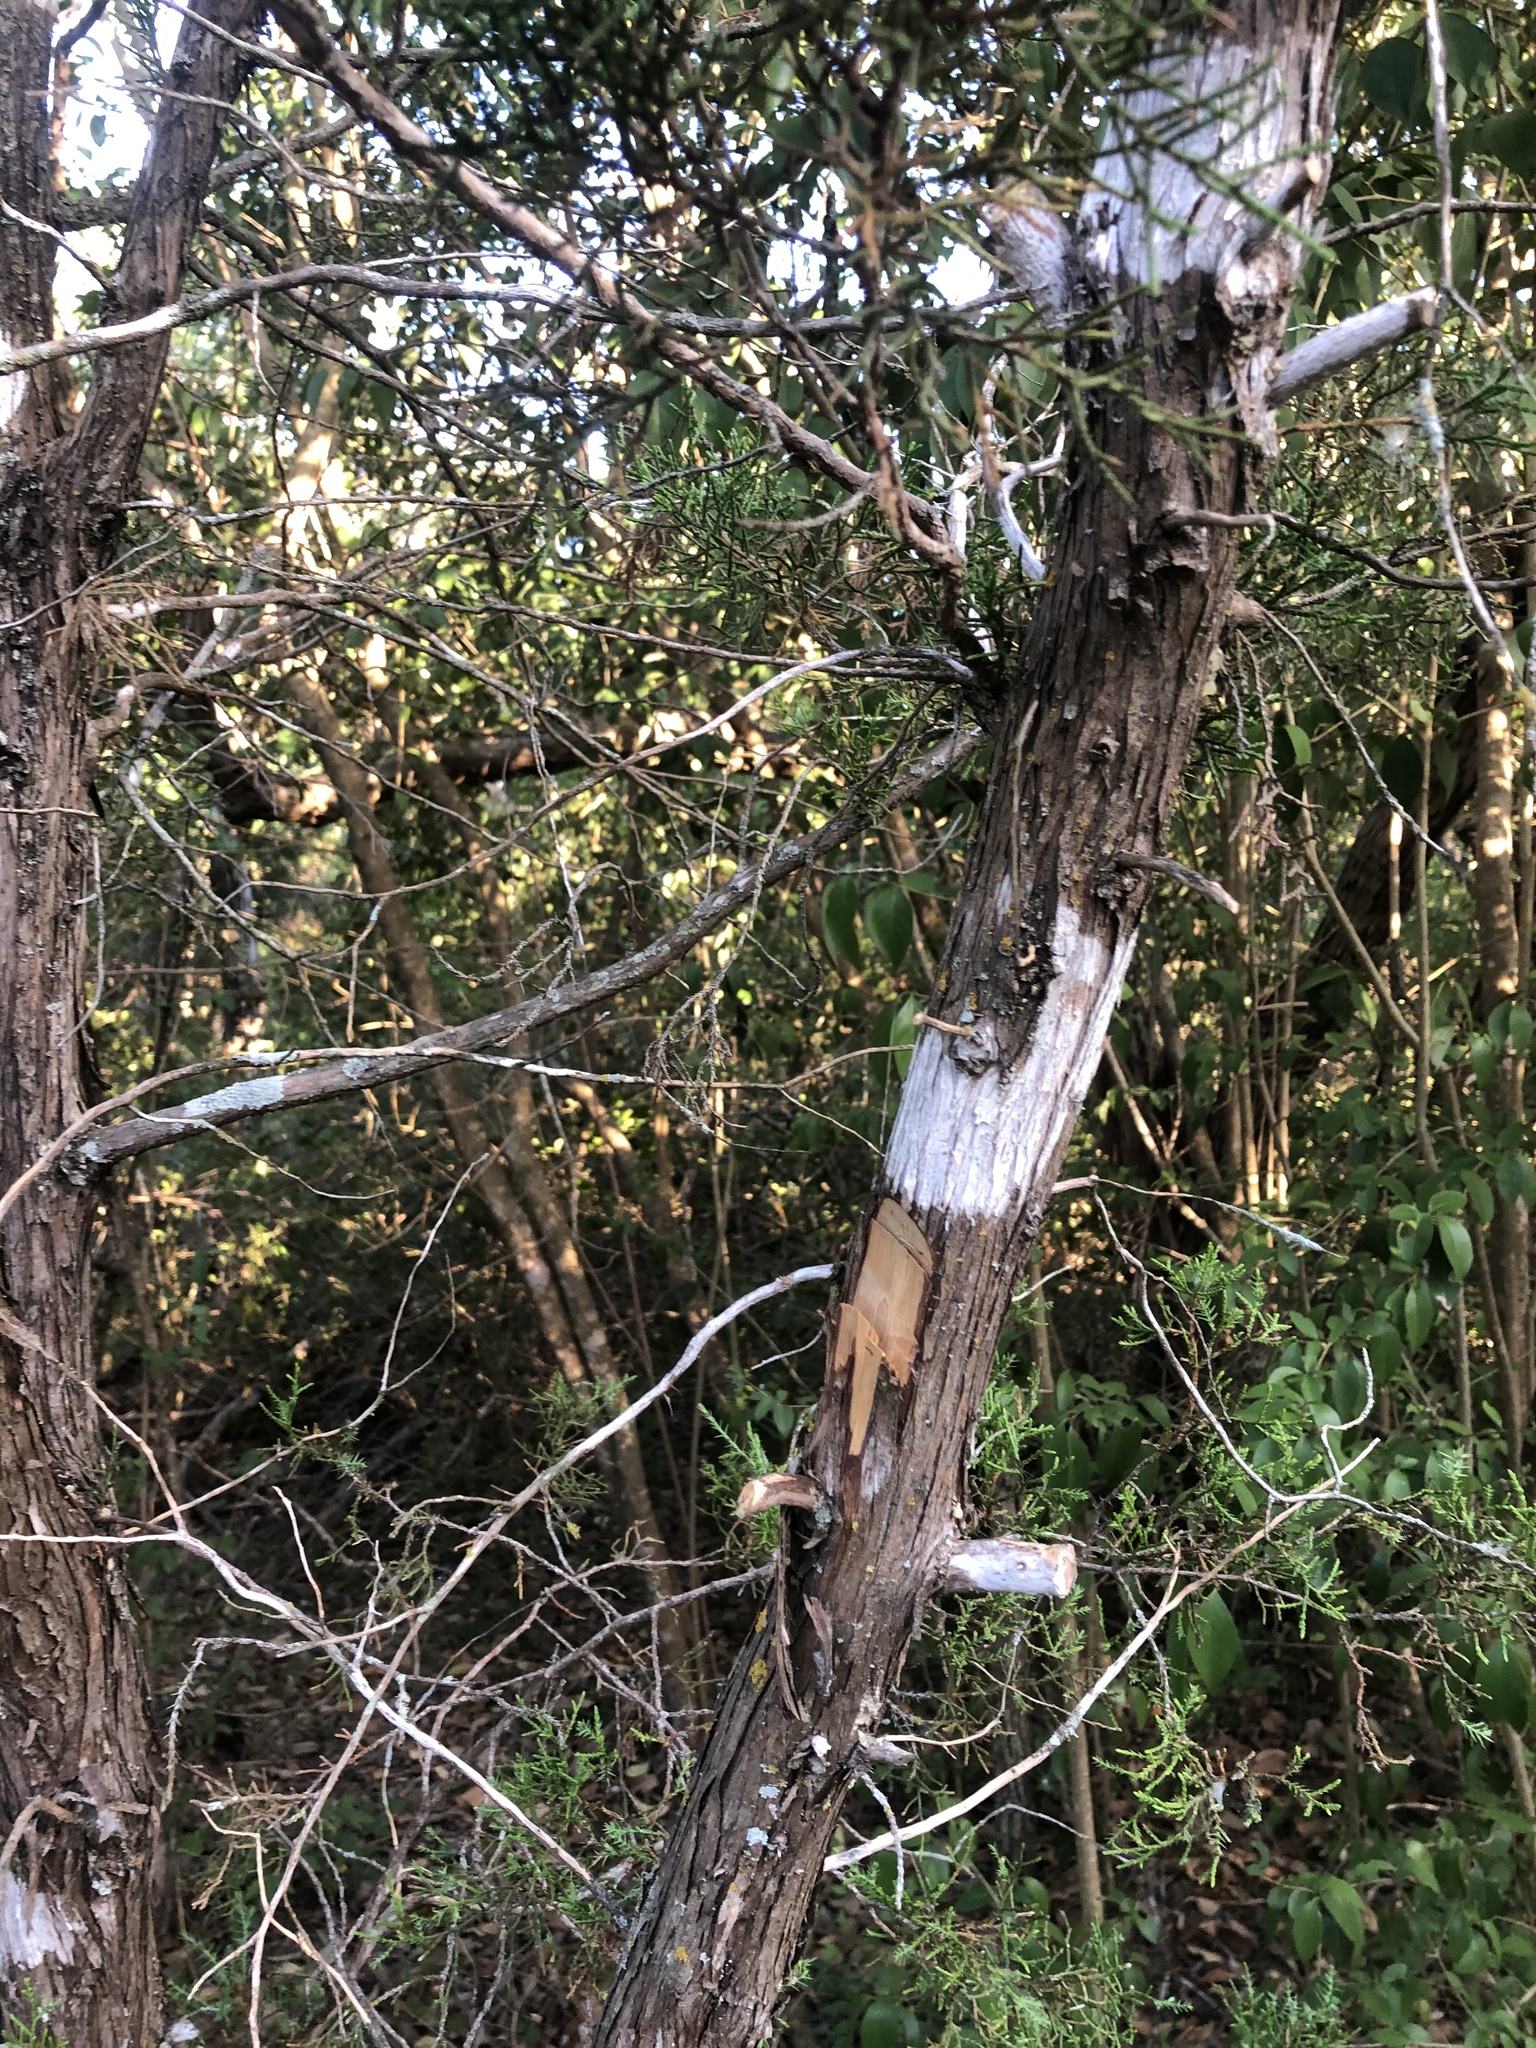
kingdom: Plantae
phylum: Tracheophyta
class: Pinopsida
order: Pinales
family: Cupressaceae
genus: Juniperus
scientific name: Juniperus ashei
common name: Mexican juniper
